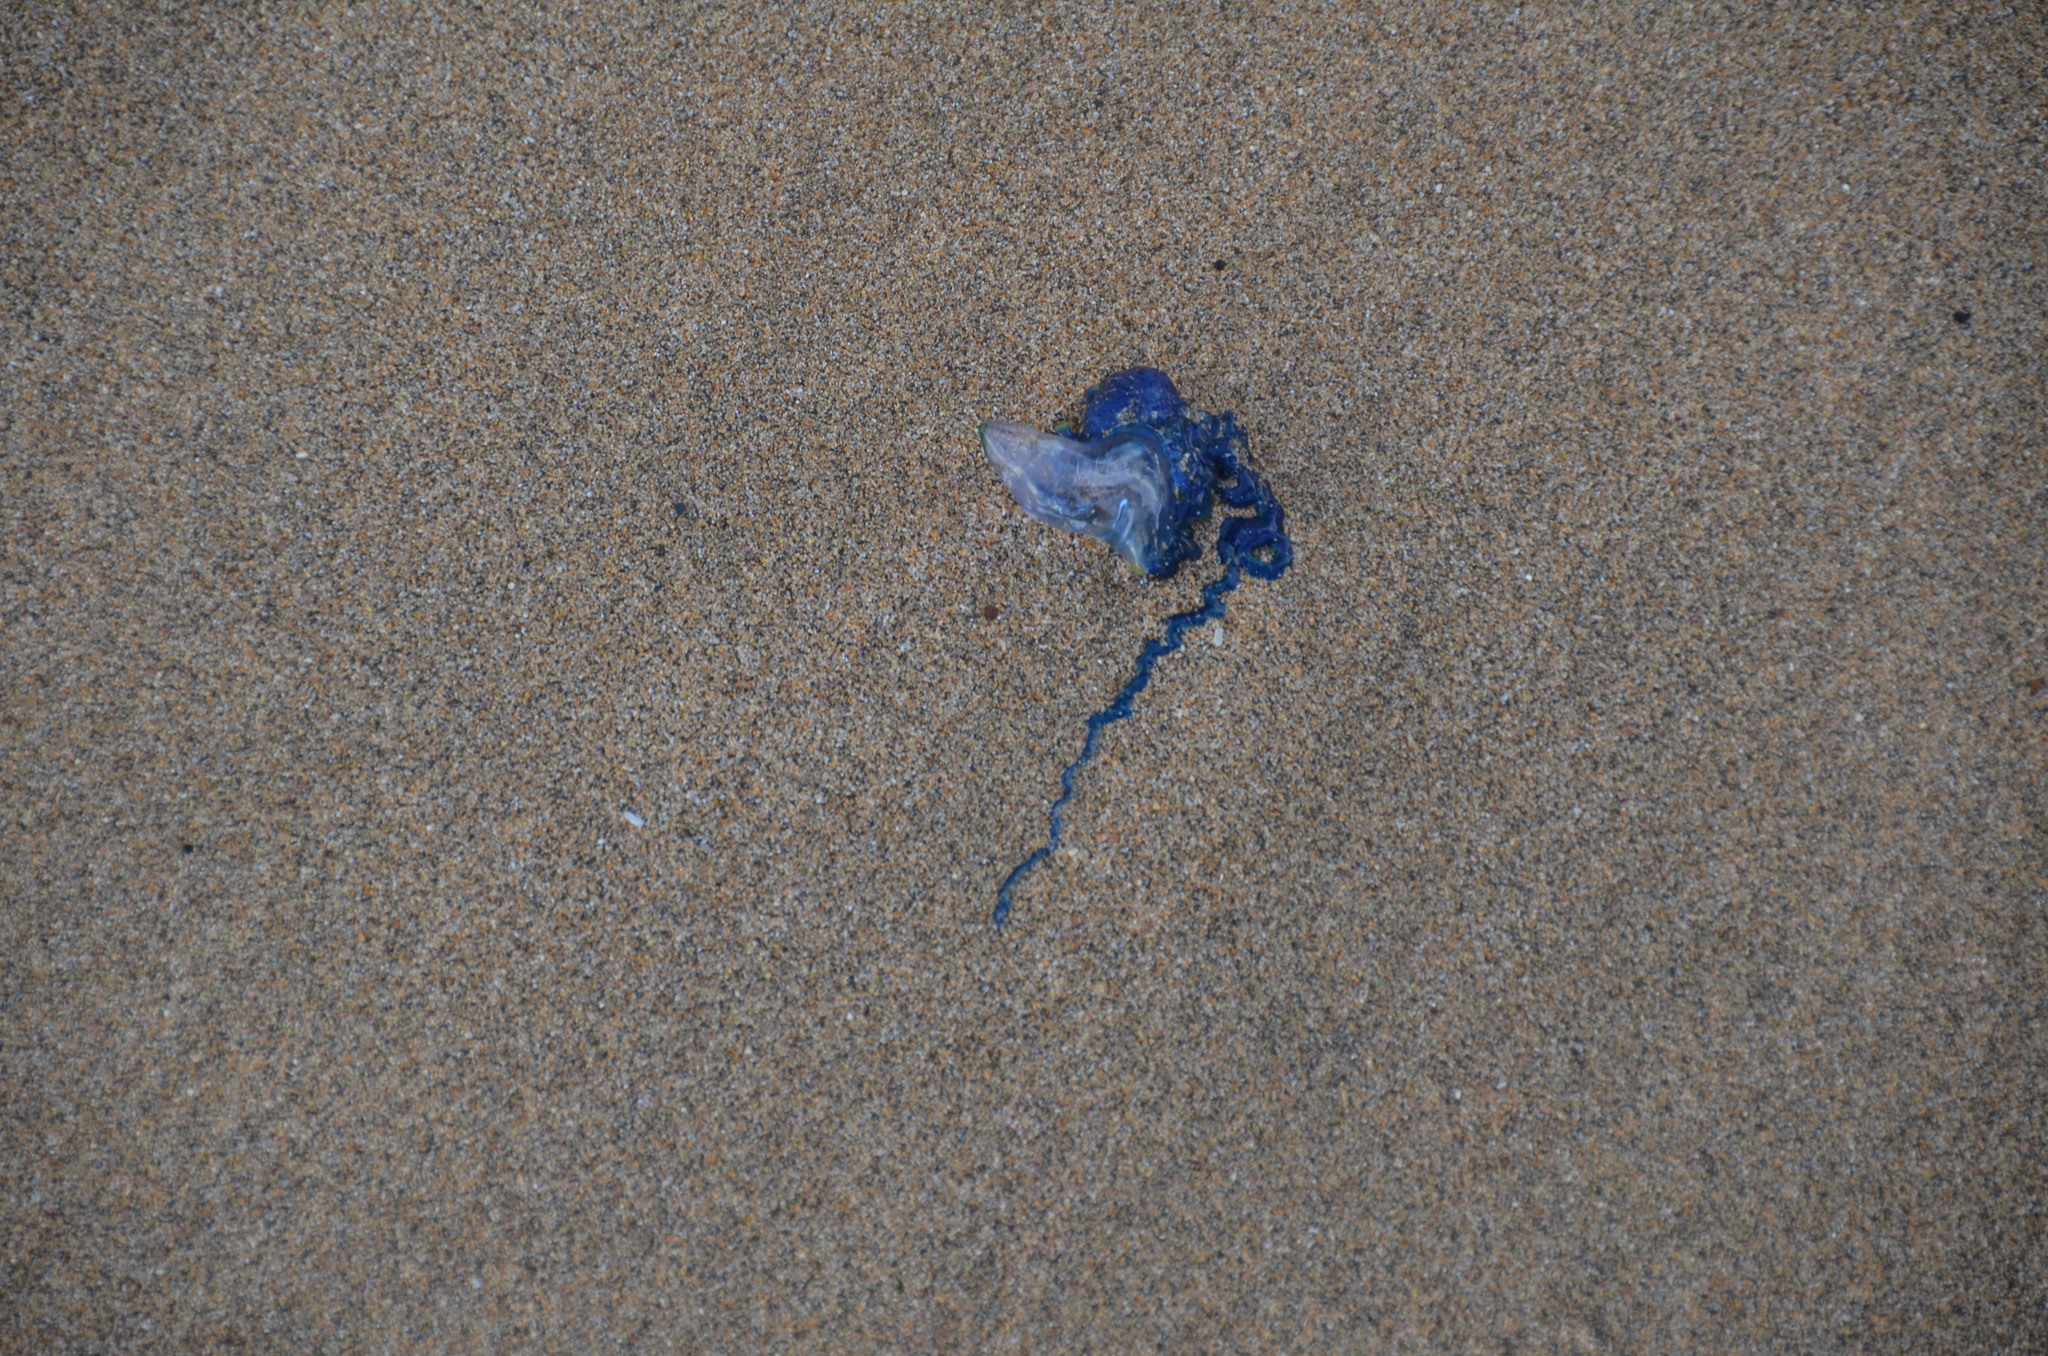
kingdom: Animalia
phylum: Cnidaria
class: Hydrozoa
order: Siphonophorae
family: Physaliidae
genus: Physalia
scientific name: Physalia physalis
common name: Portuguese man-of-war
